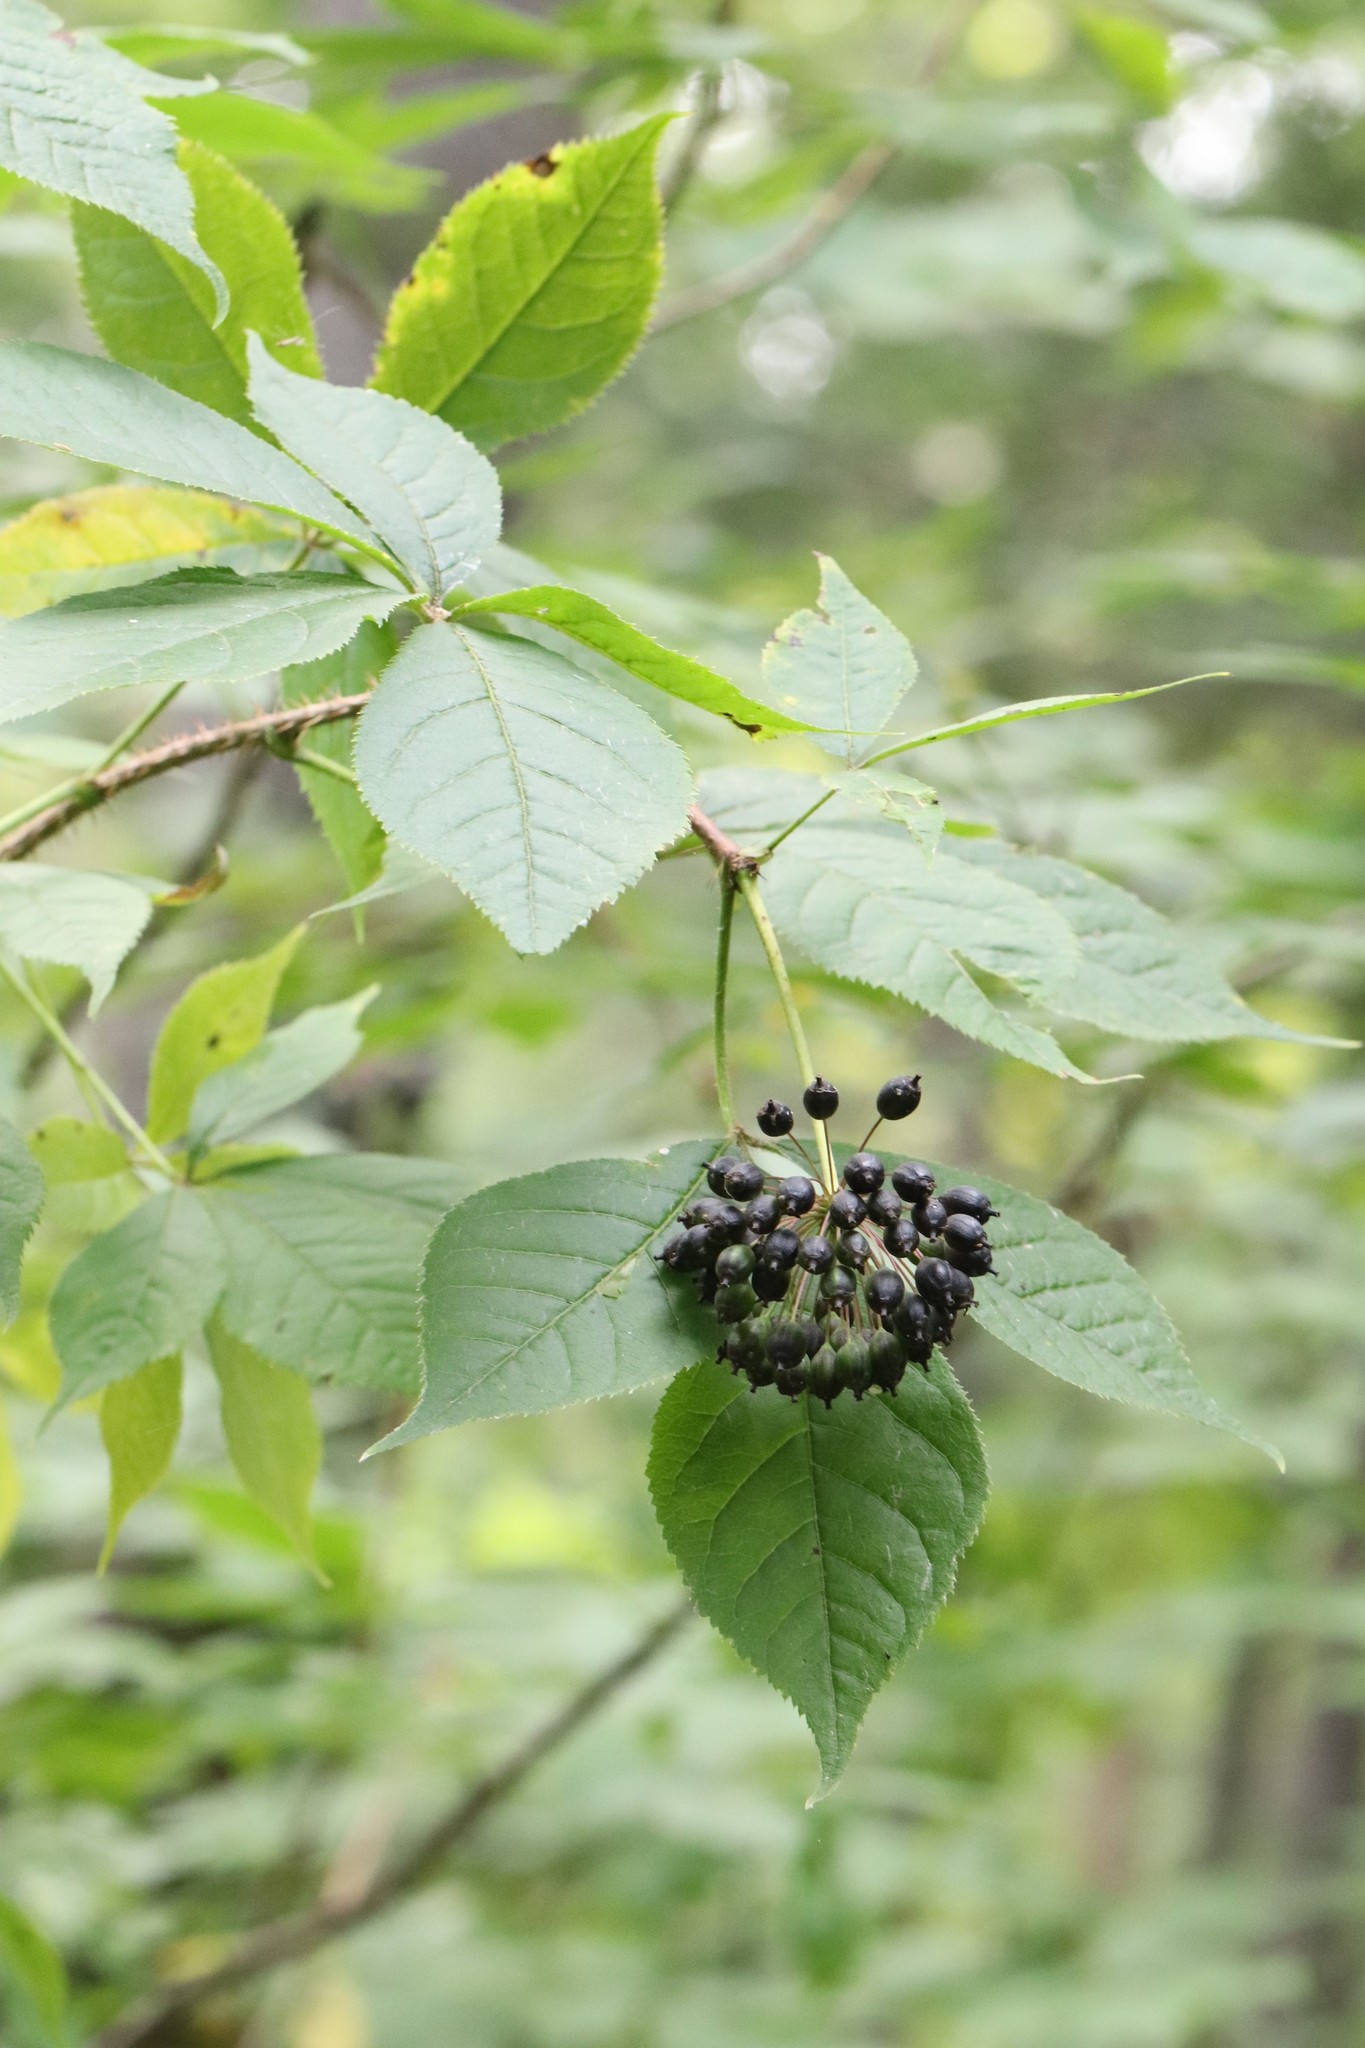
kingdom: Plantae
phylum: Tracheophyta
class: Magnoliopsida
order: Apiales
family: Araliaceae
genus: Eleutherococcus
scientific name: Eleutherococcus senticosus
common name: Siberian-ginseng
